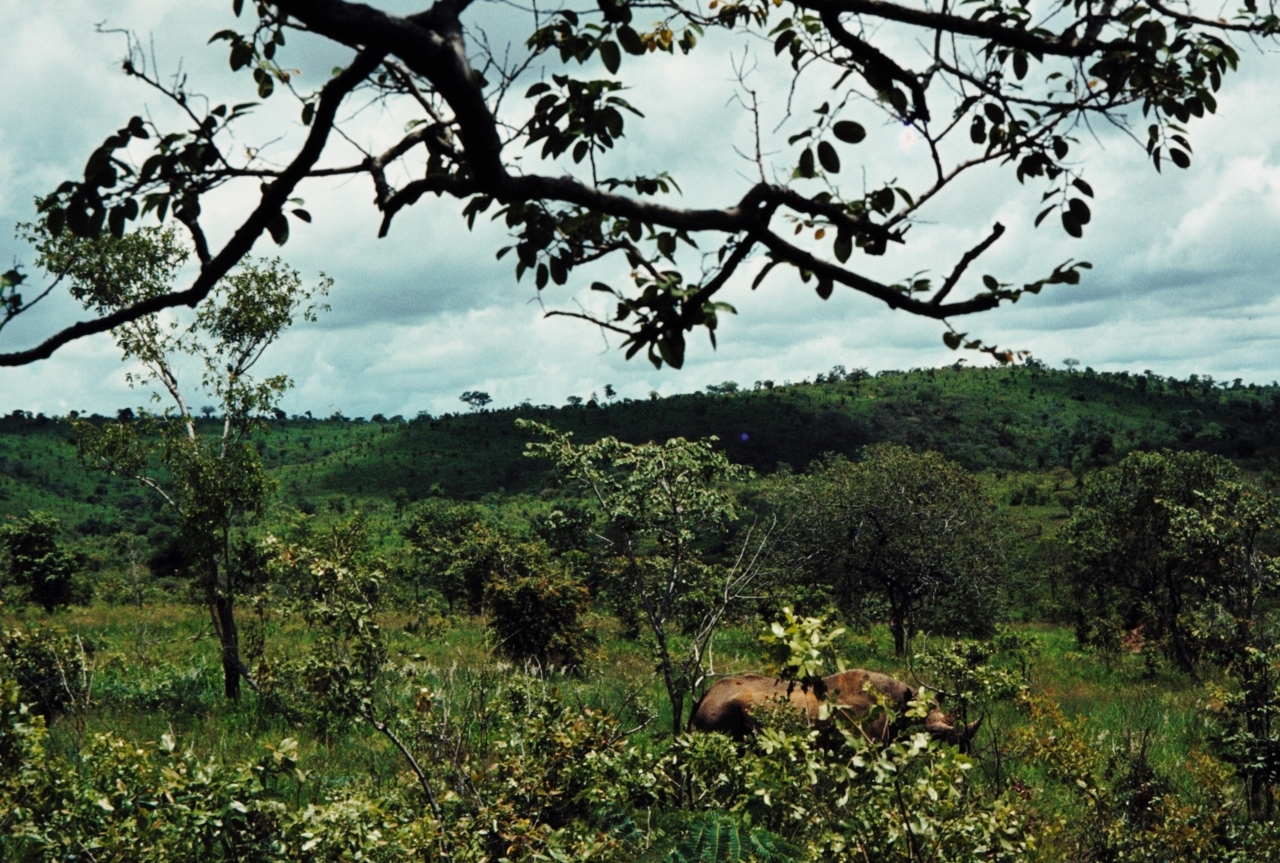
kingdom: Animalia
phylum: Chordata
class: Mammalia
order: Perissodactyla
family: Rhinocerotidae
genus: Diceros
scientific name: Diceros bicornis
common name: Black rhinoceros
